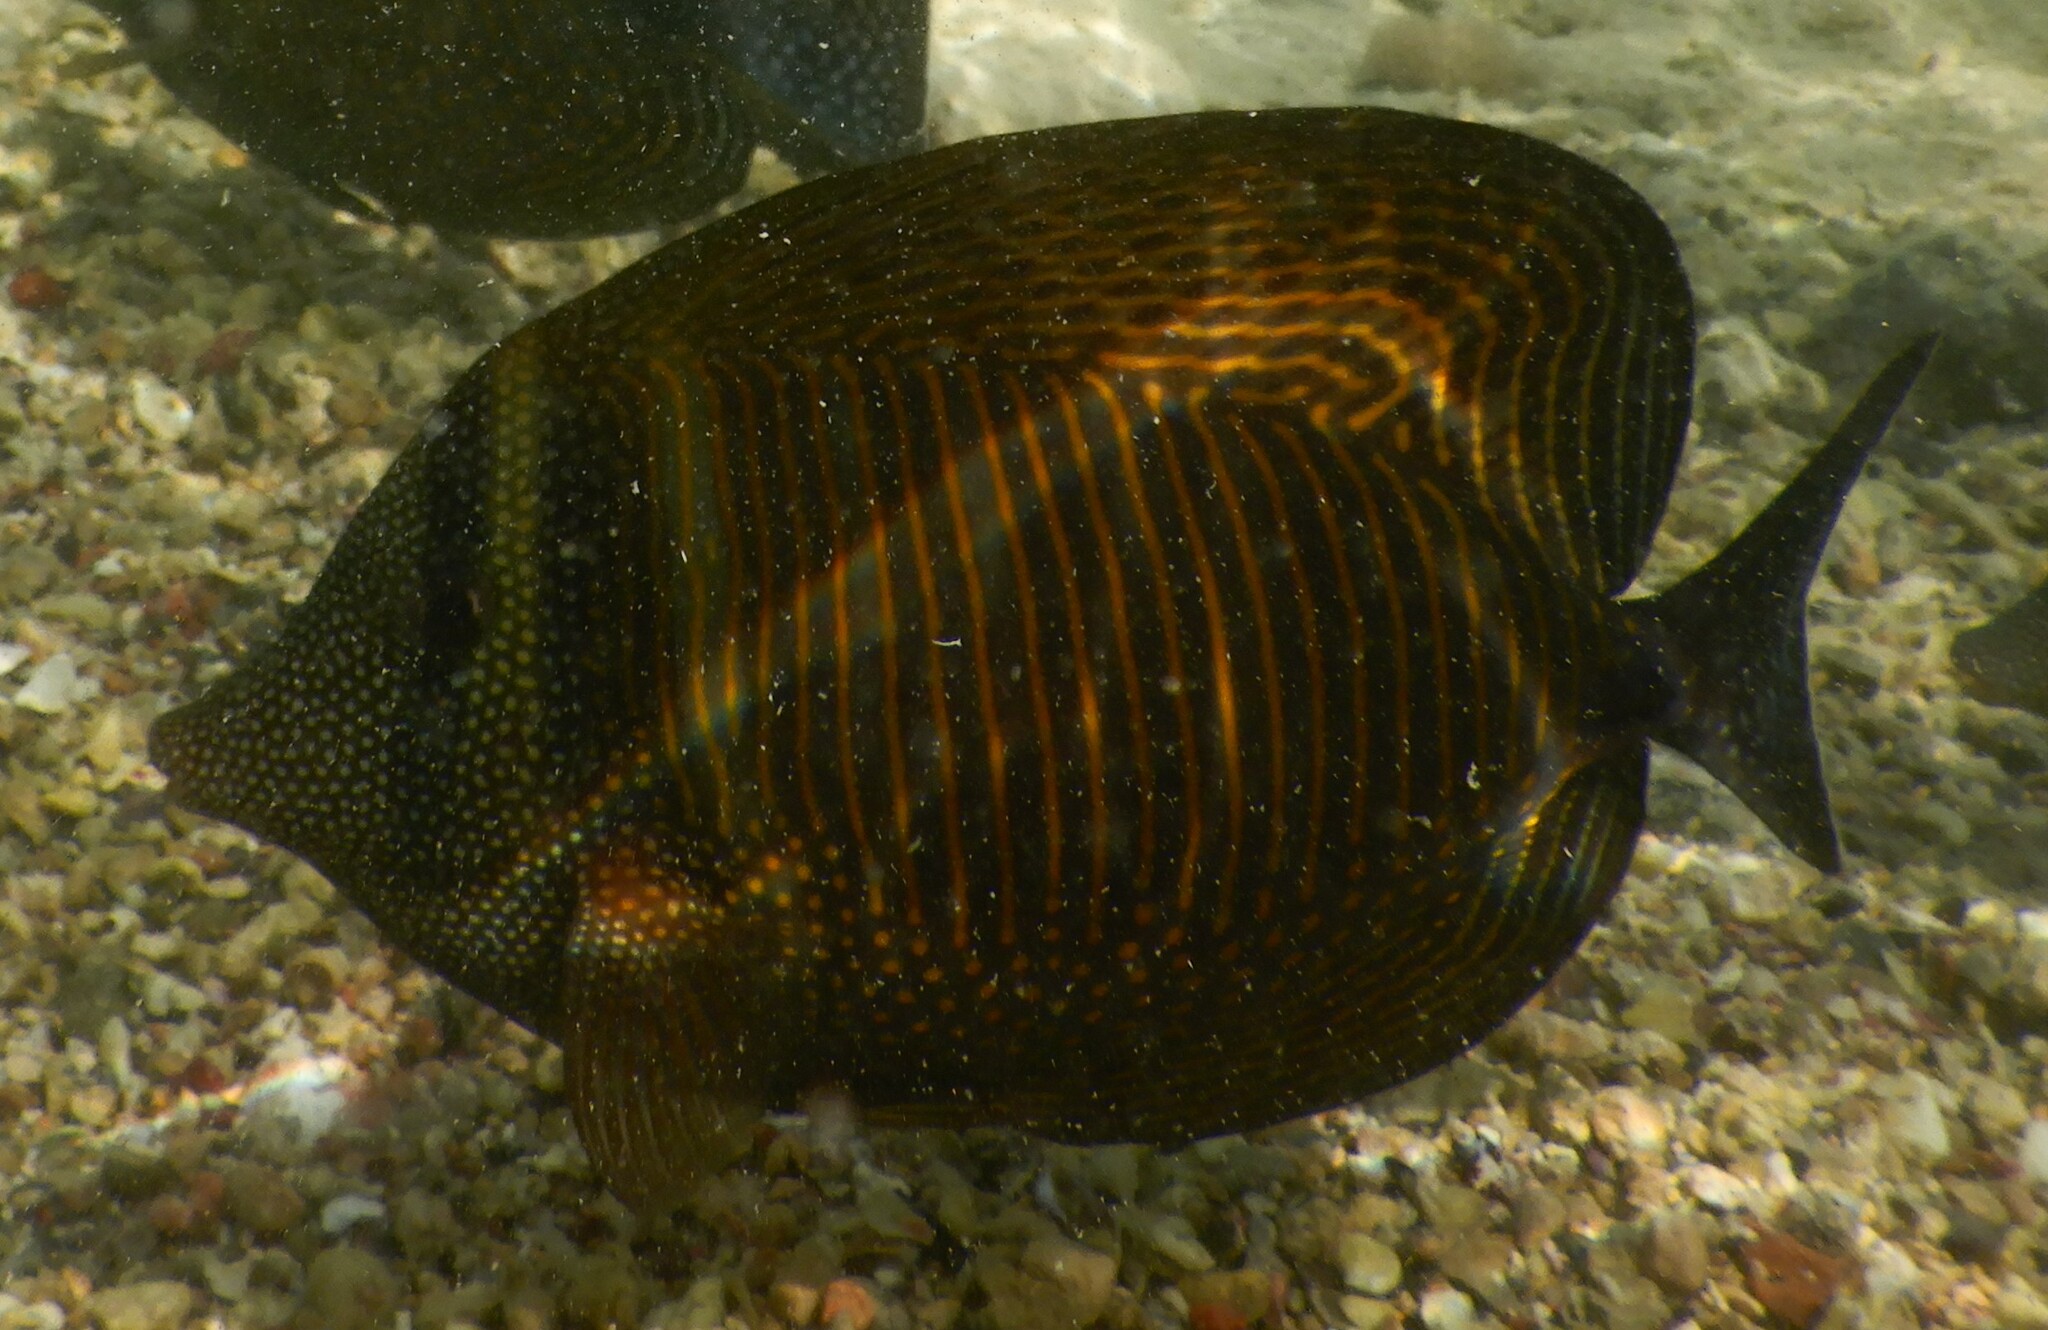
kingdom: Animalia
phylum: Chordata
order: Perciformes
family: Acanthuridae
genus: Zebrasoma
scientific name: Zebrasoma desjardinii
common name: Desjardin's sailfin tang
